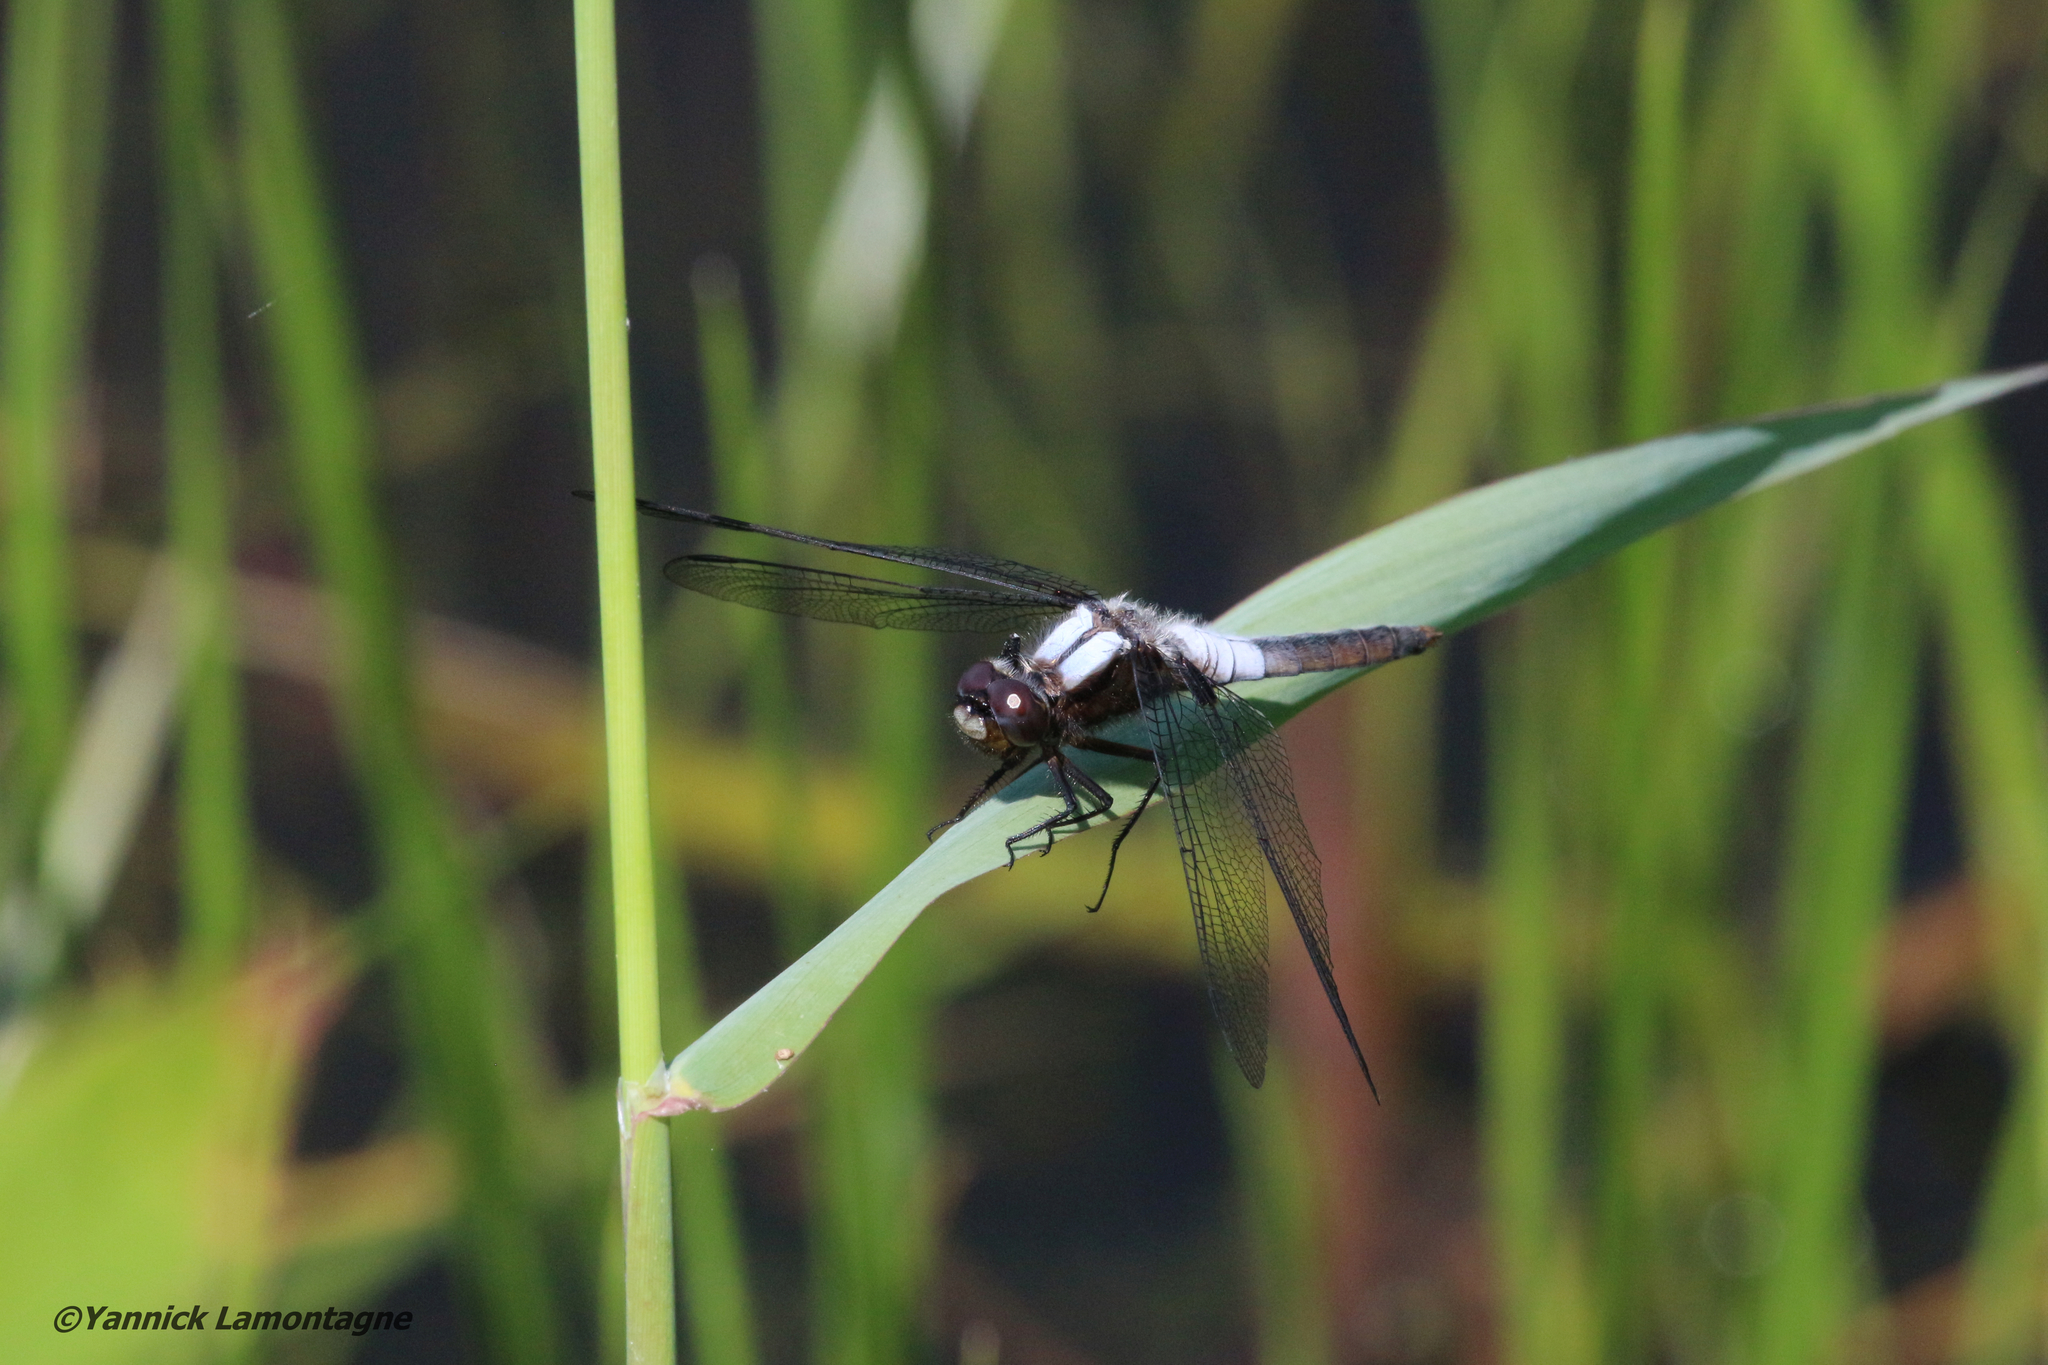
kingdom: Animalia
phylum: Arthropoda
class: Insecta
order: Odonata
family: Libellulidae
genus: Ladona
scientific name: Ladona julia
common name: Chalk-fronted corporal
